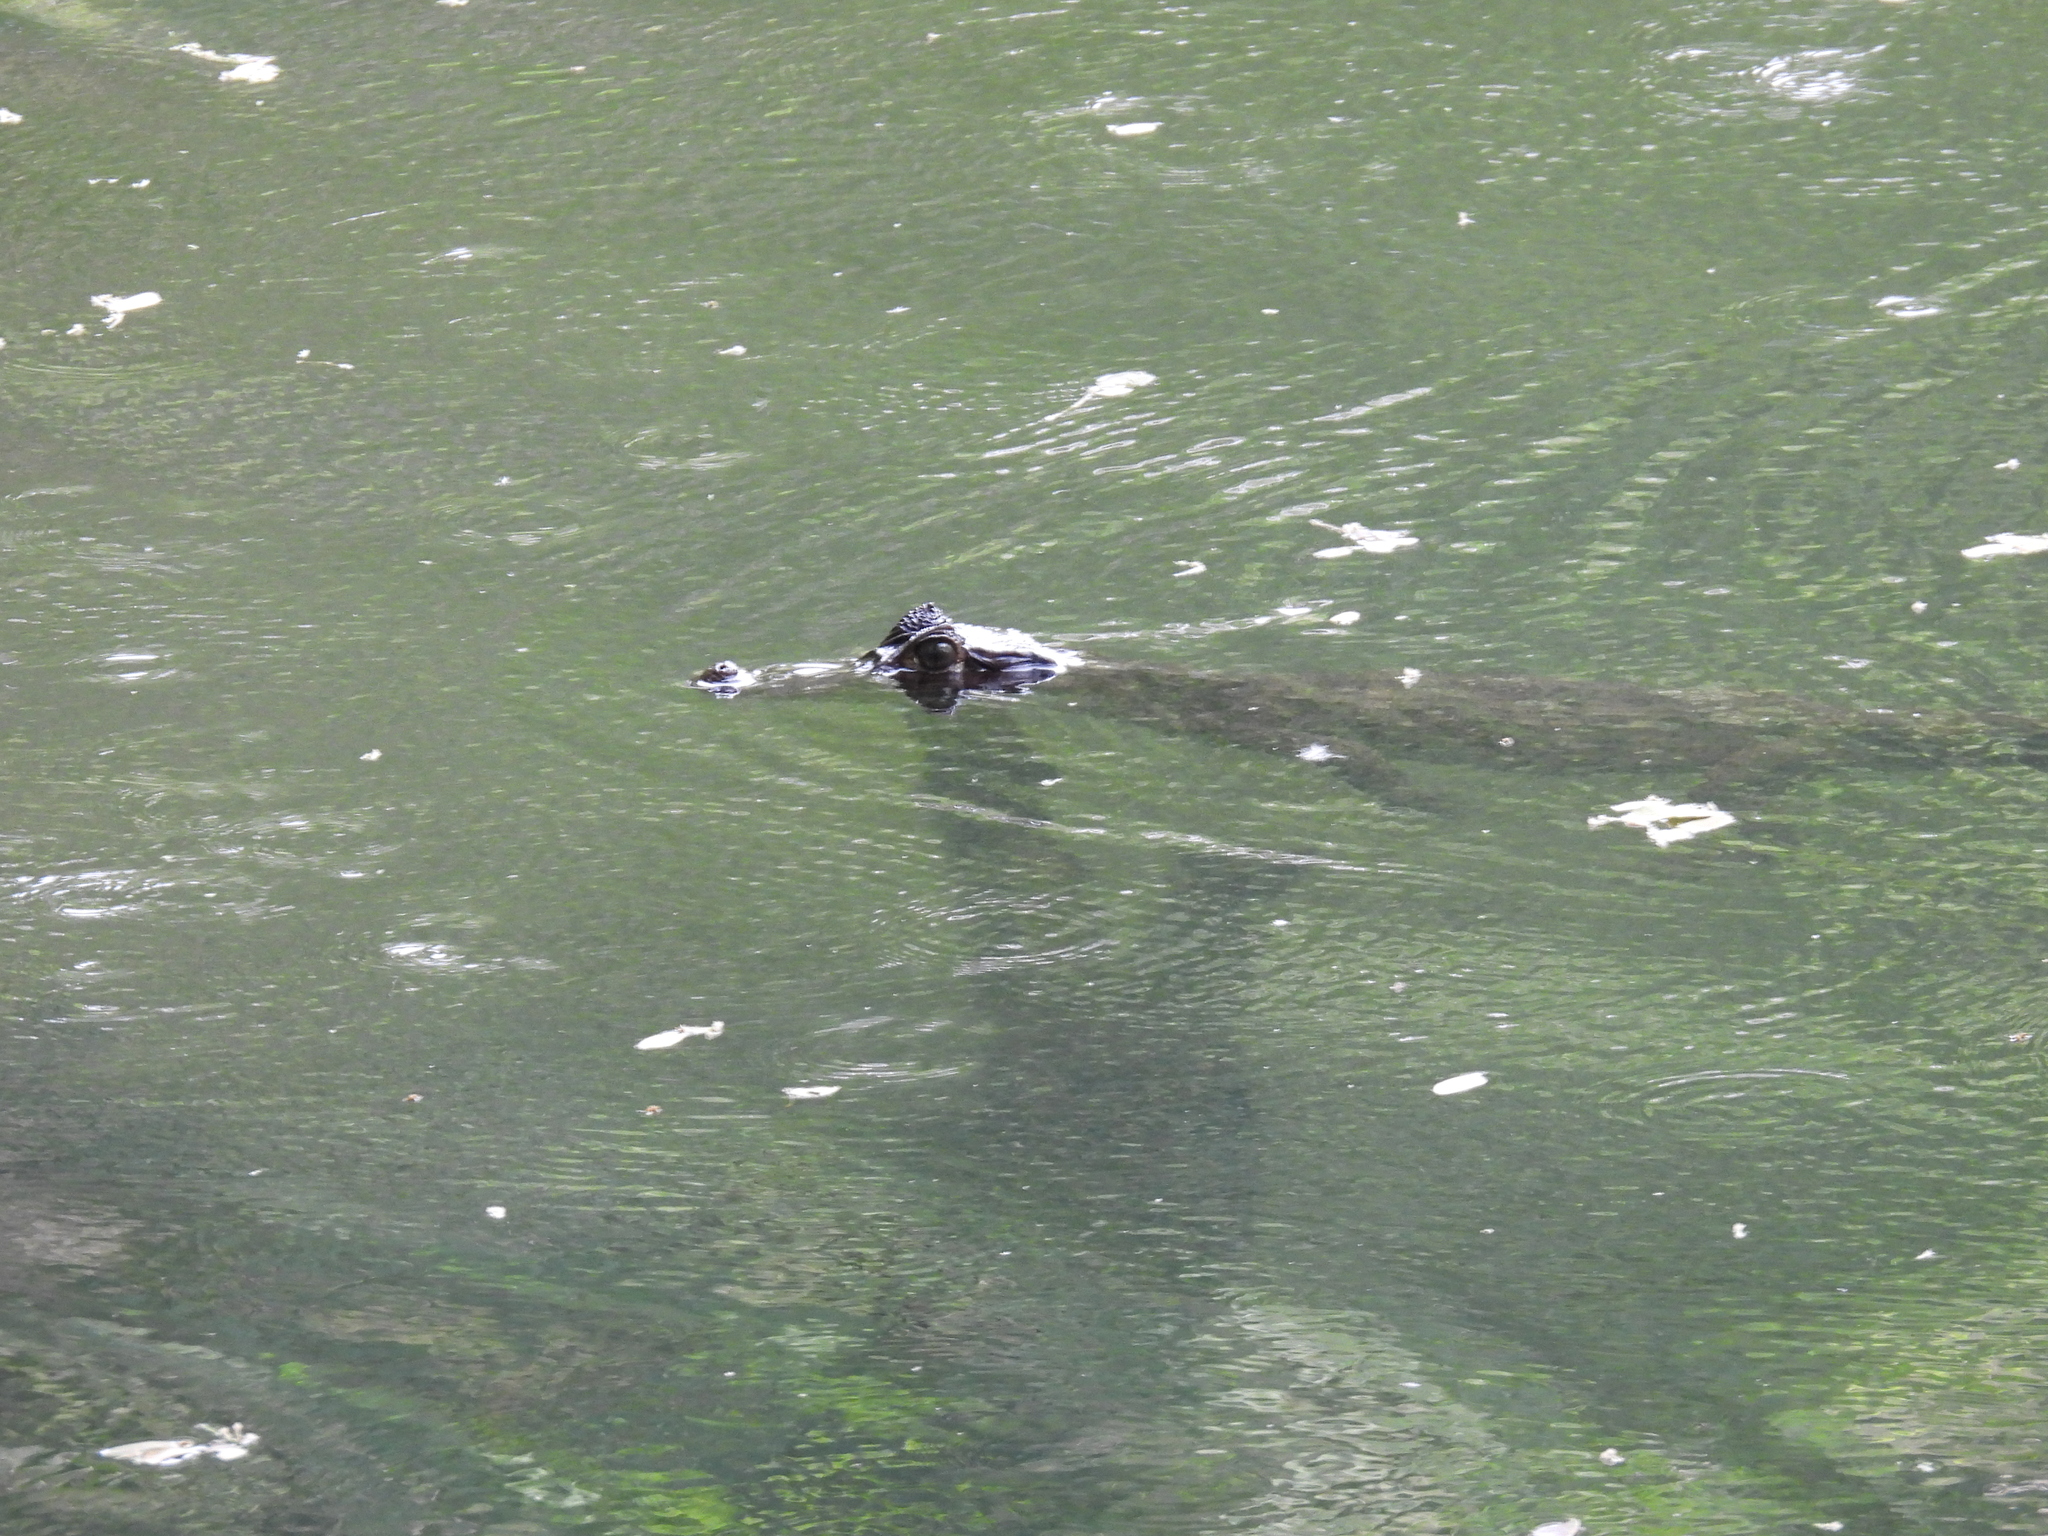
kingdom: Animalia
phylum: Chordata
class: Crocodylia
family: Alligatoridae
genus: Caiman
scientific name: Caiman crocodilus
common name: Common caiman
